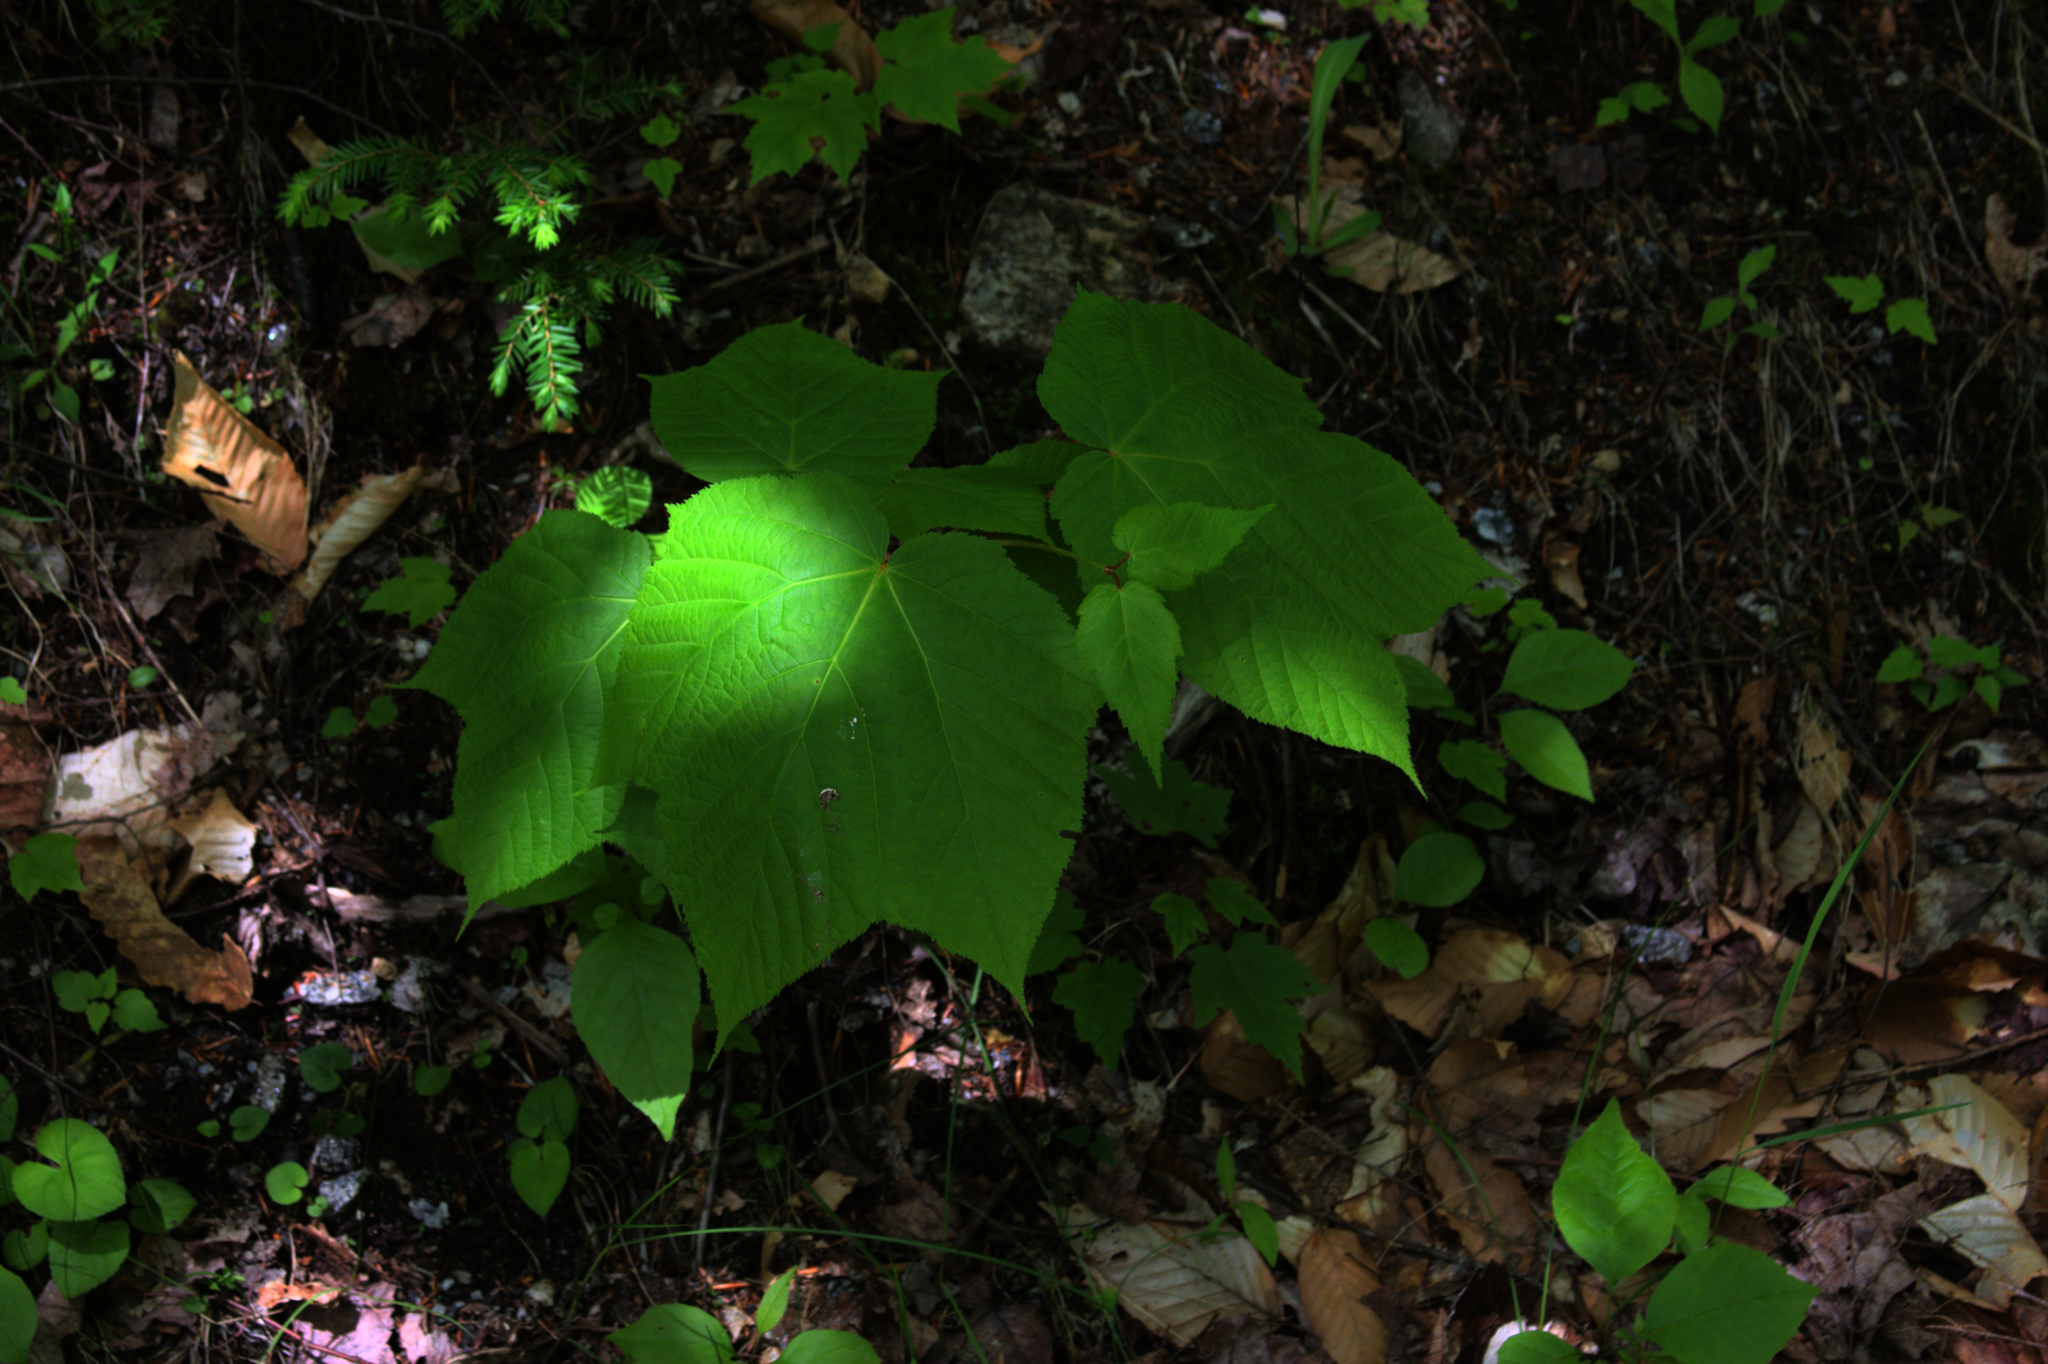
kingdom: Plantae
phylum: Tracheophyta
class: Magnoliopsida
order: Sapindales
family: Sapindaceae
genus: Acer
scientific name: Acer pensylvanicum
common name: Moosewood
